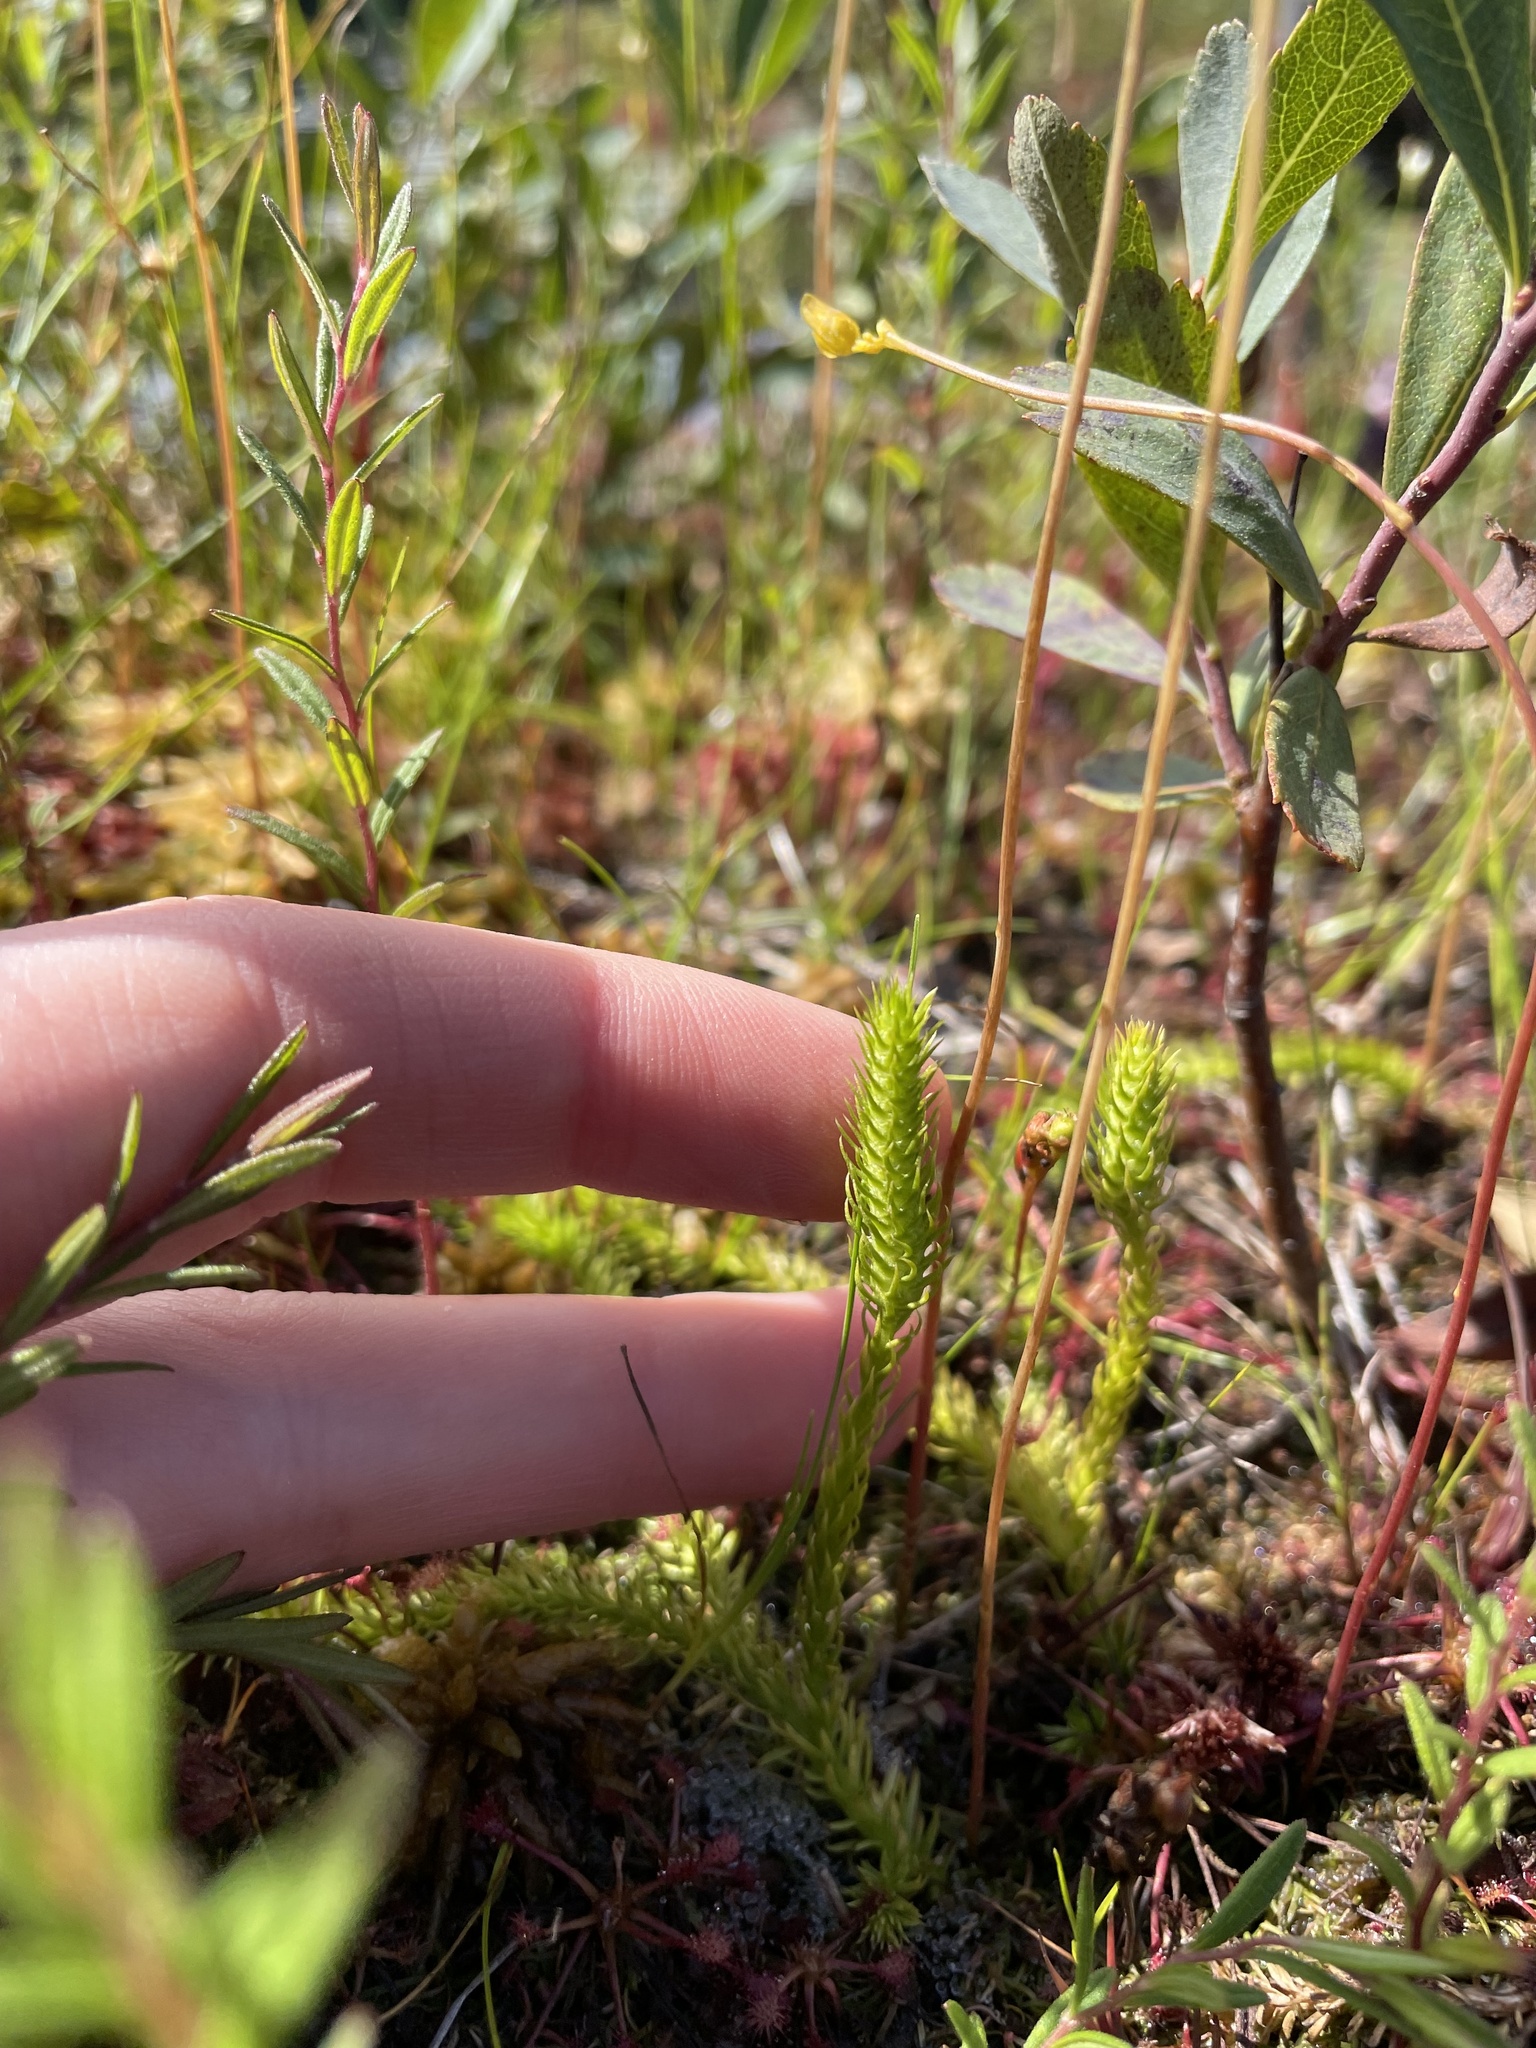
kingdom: Plantae
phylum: Tracheophyta
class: Lycopodiopsida
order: Lycopodiales
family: Lycopodiaceae
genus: Lycopodiella
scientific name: Lycopodiella inundata
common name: Marsh clubmoss
